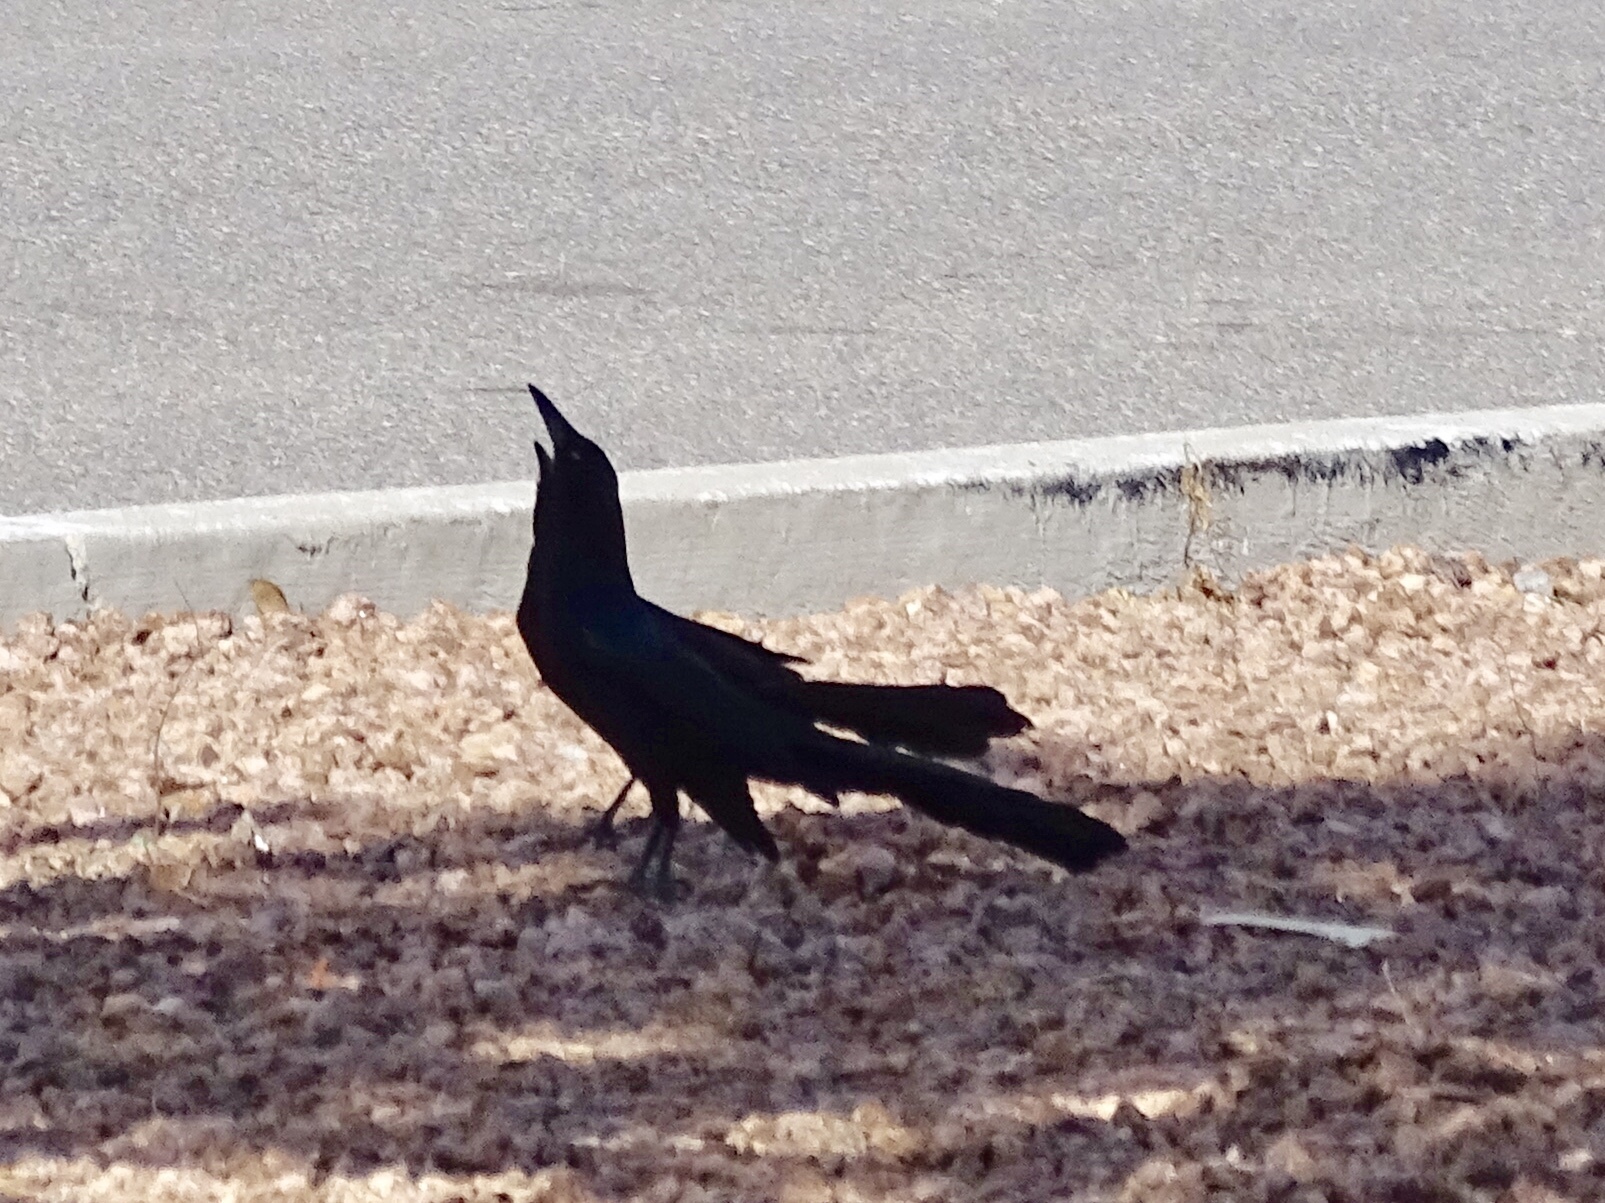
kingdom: Animalia
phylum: Chordata
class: Aves
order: Passeriformes
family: Icteridae
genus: Quiscalus
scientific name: Quiscalus mexicanus
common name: Great-tailed grackle
